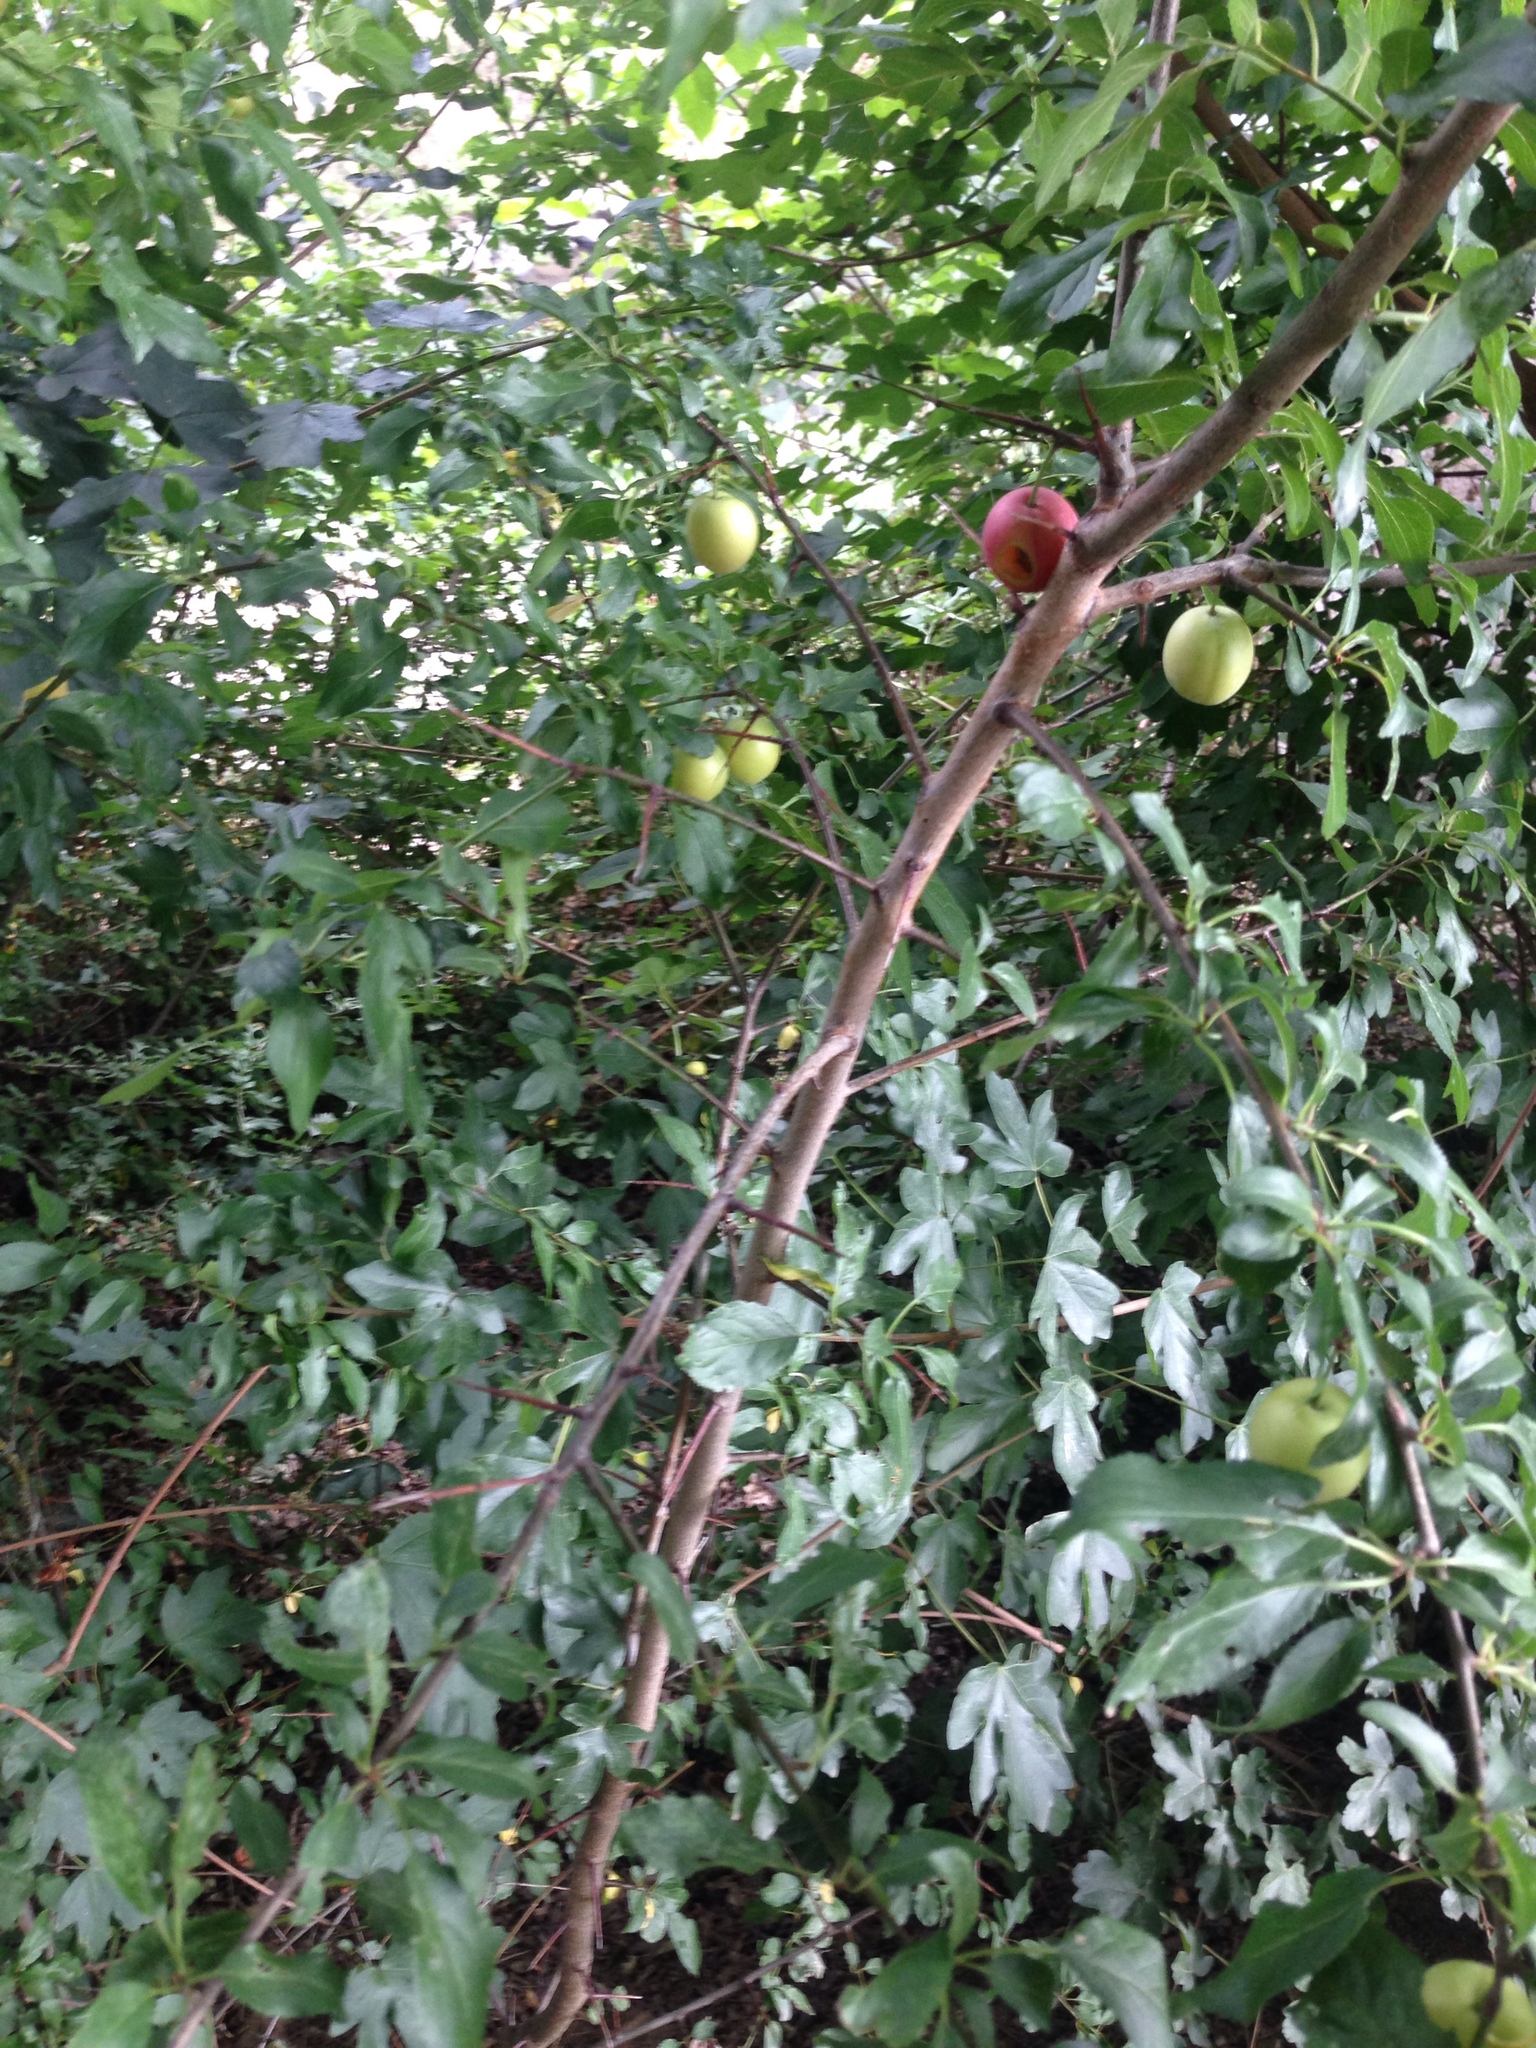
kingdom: Plantae
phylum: Tracheophyta
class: Magnoliopsida
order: Rosales
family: Rosaceae
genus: Prunus
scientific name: Prunus cerasifera
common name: Cherry plum
